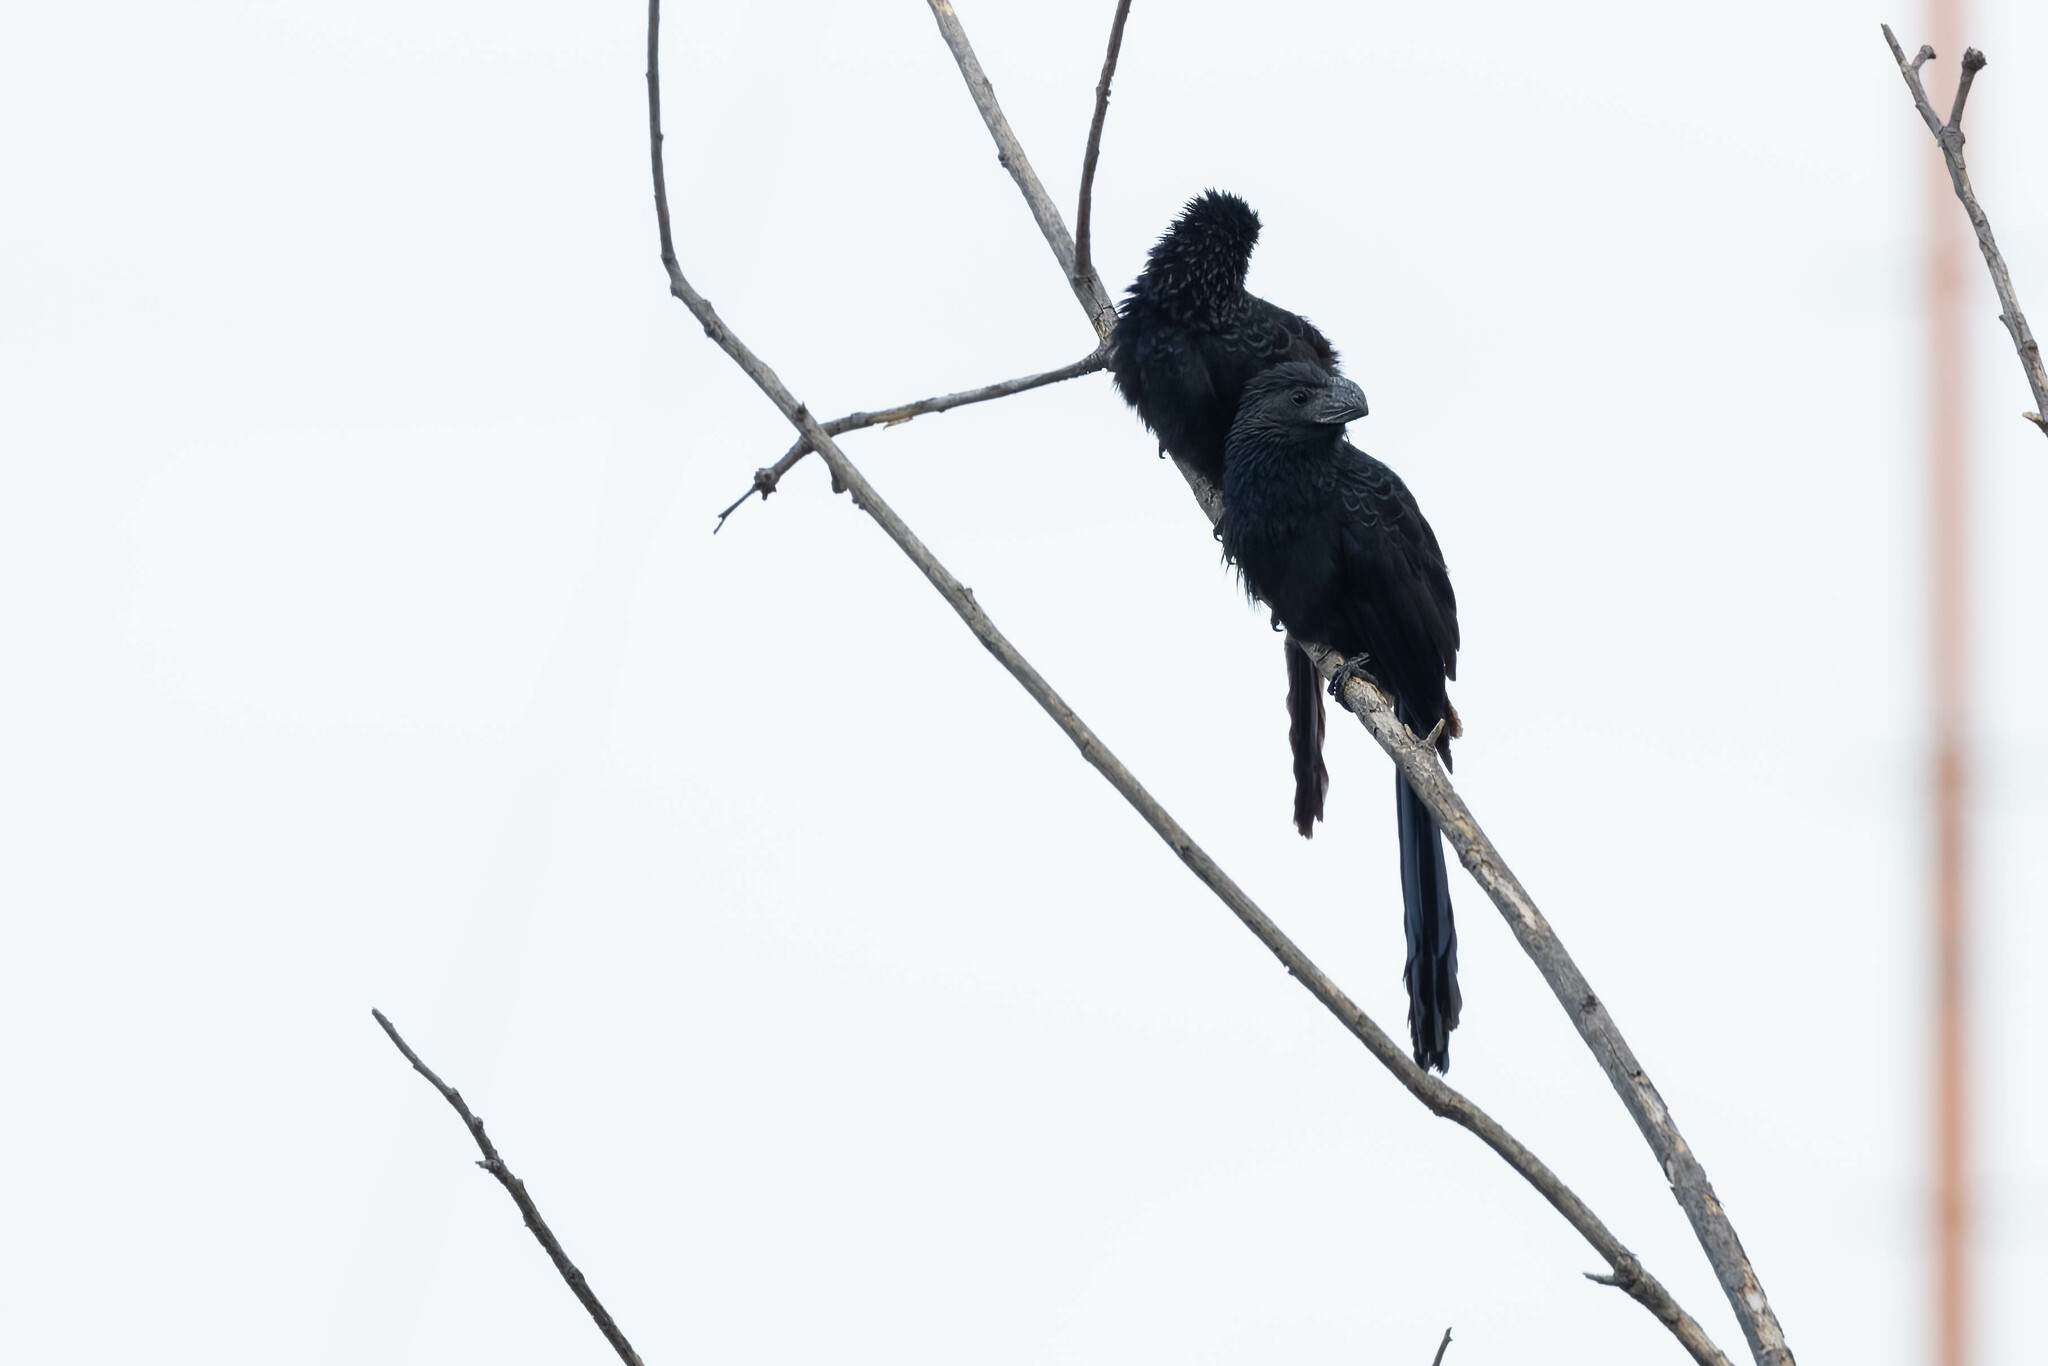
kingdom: Animalia
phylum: Chordata
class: Aves
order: Cuculiformes
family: Cuculidae
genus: Crotophaga
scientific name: Crotophaga sulcirostris
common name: Groove-billed ani
